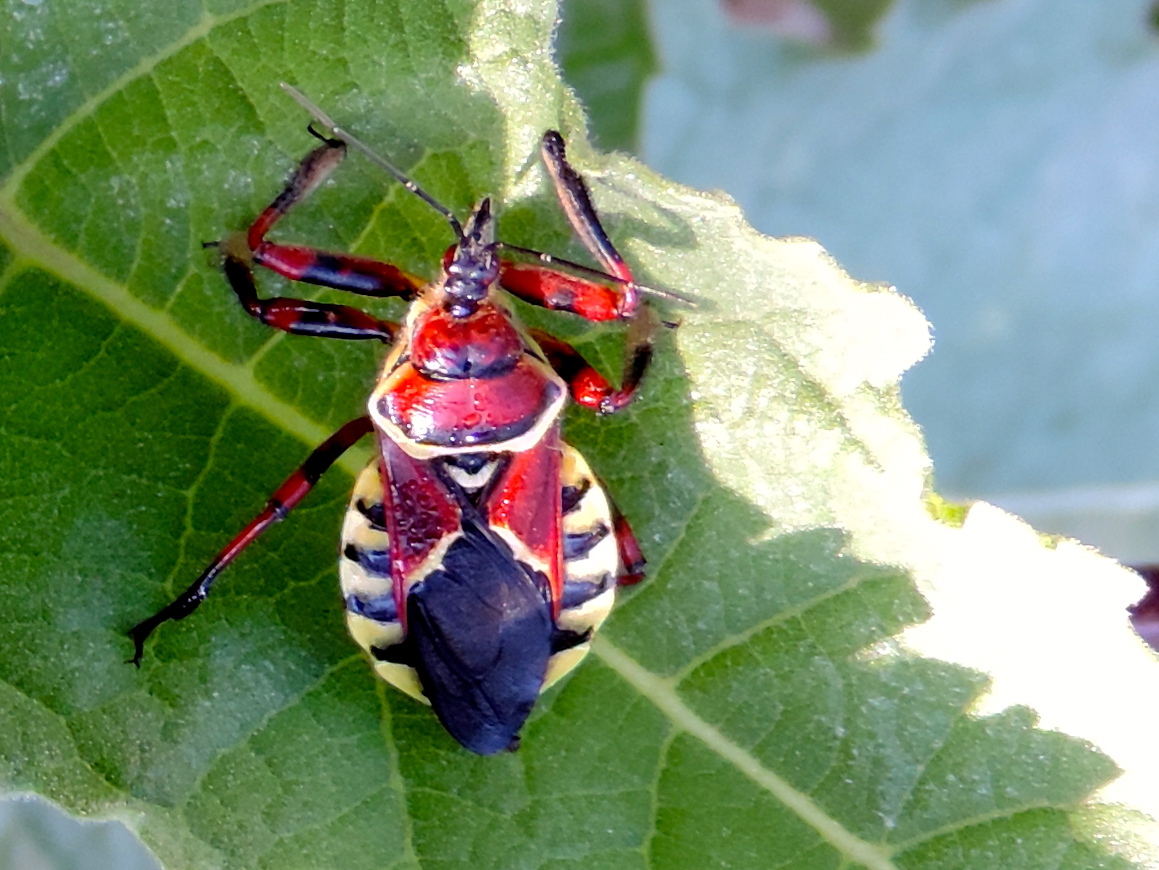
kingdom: Animalia
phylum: Arthropoda
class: Insecta
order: Hemiptera
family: Reduviidae
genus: Apiomerus
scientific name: Apiomerus flaviventris
